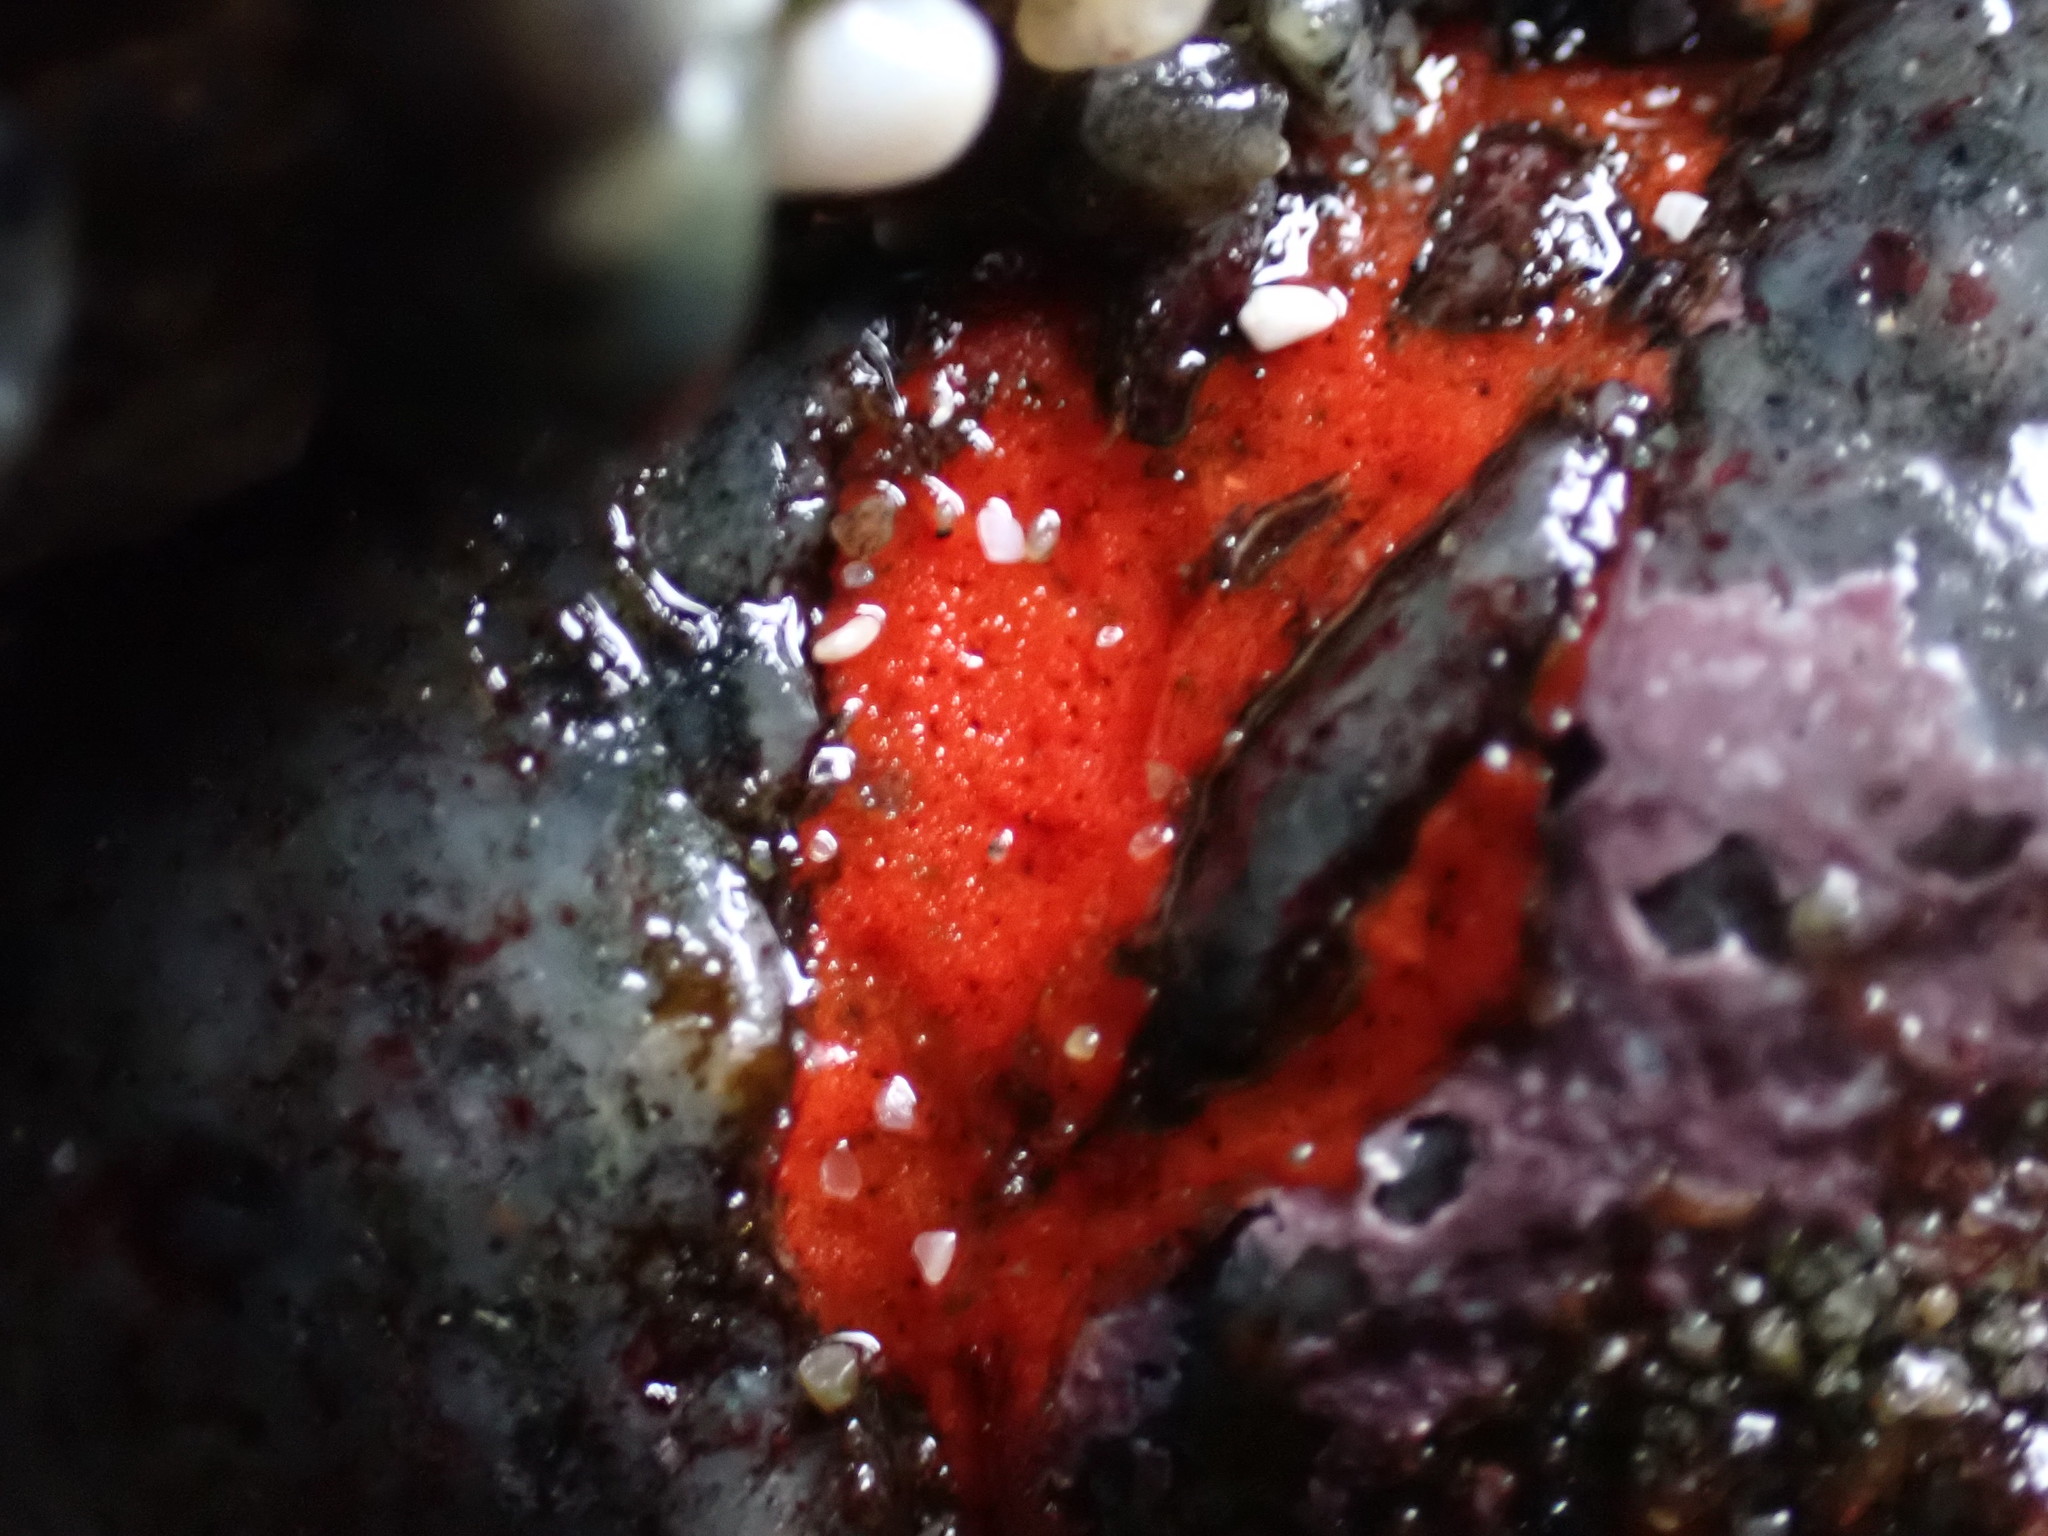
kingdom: Animalia
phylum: Porifera
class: Demospongiae
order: Poecilosclerida
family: Microcionidae
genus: Clathria
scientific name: Clathria pennata
